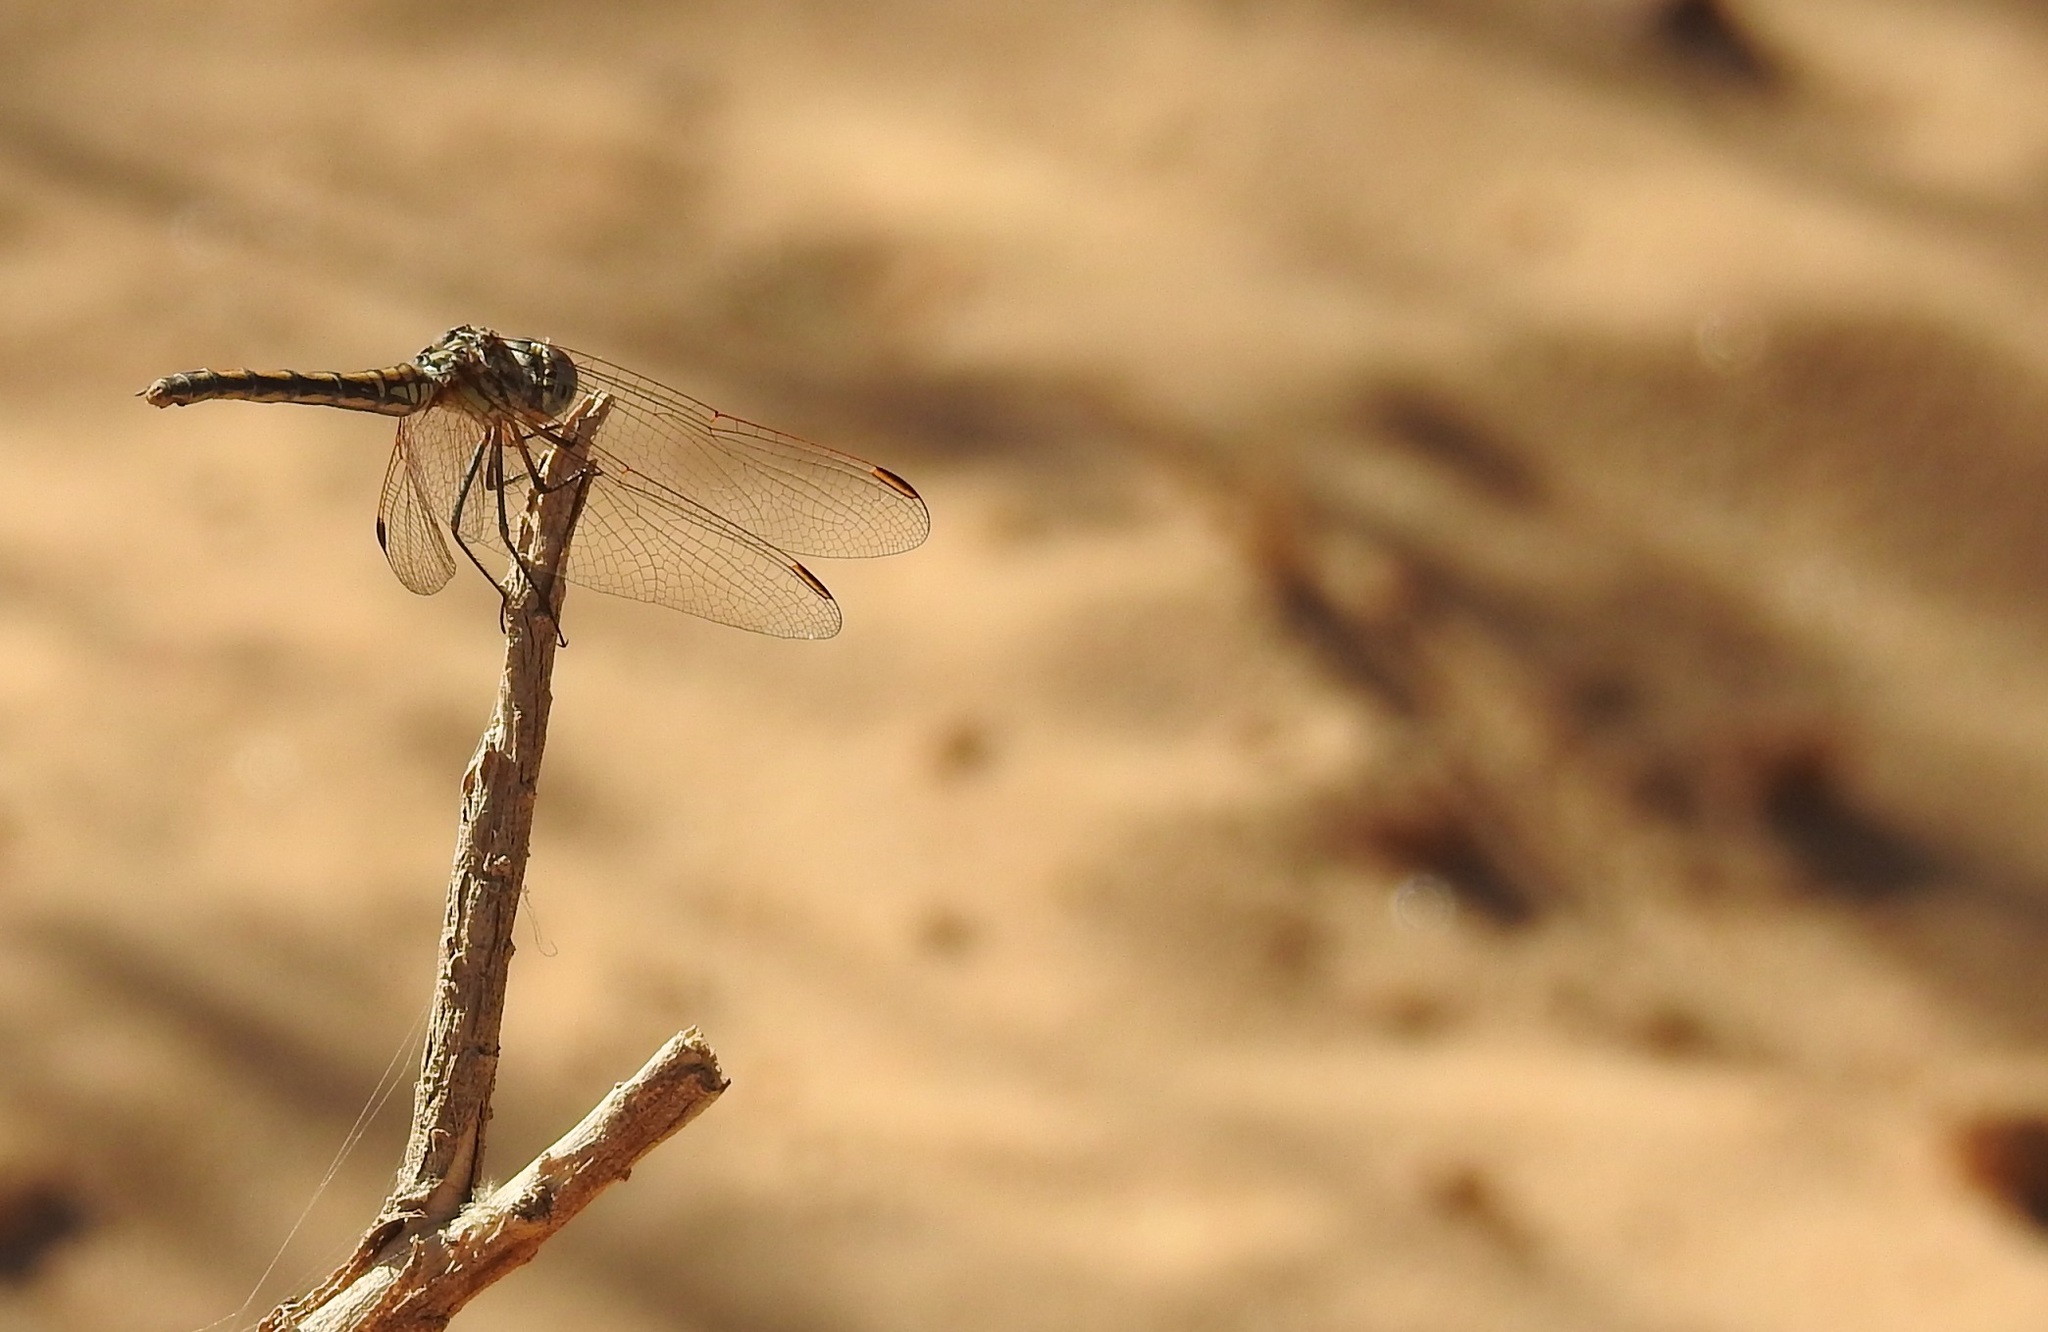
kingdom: Animalia
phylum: Arthropoda
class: Insecta
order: Odonata
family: Libellulidae
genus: Trithemis
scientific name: Trithemis arteriosa
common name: Red-veined dropwing
